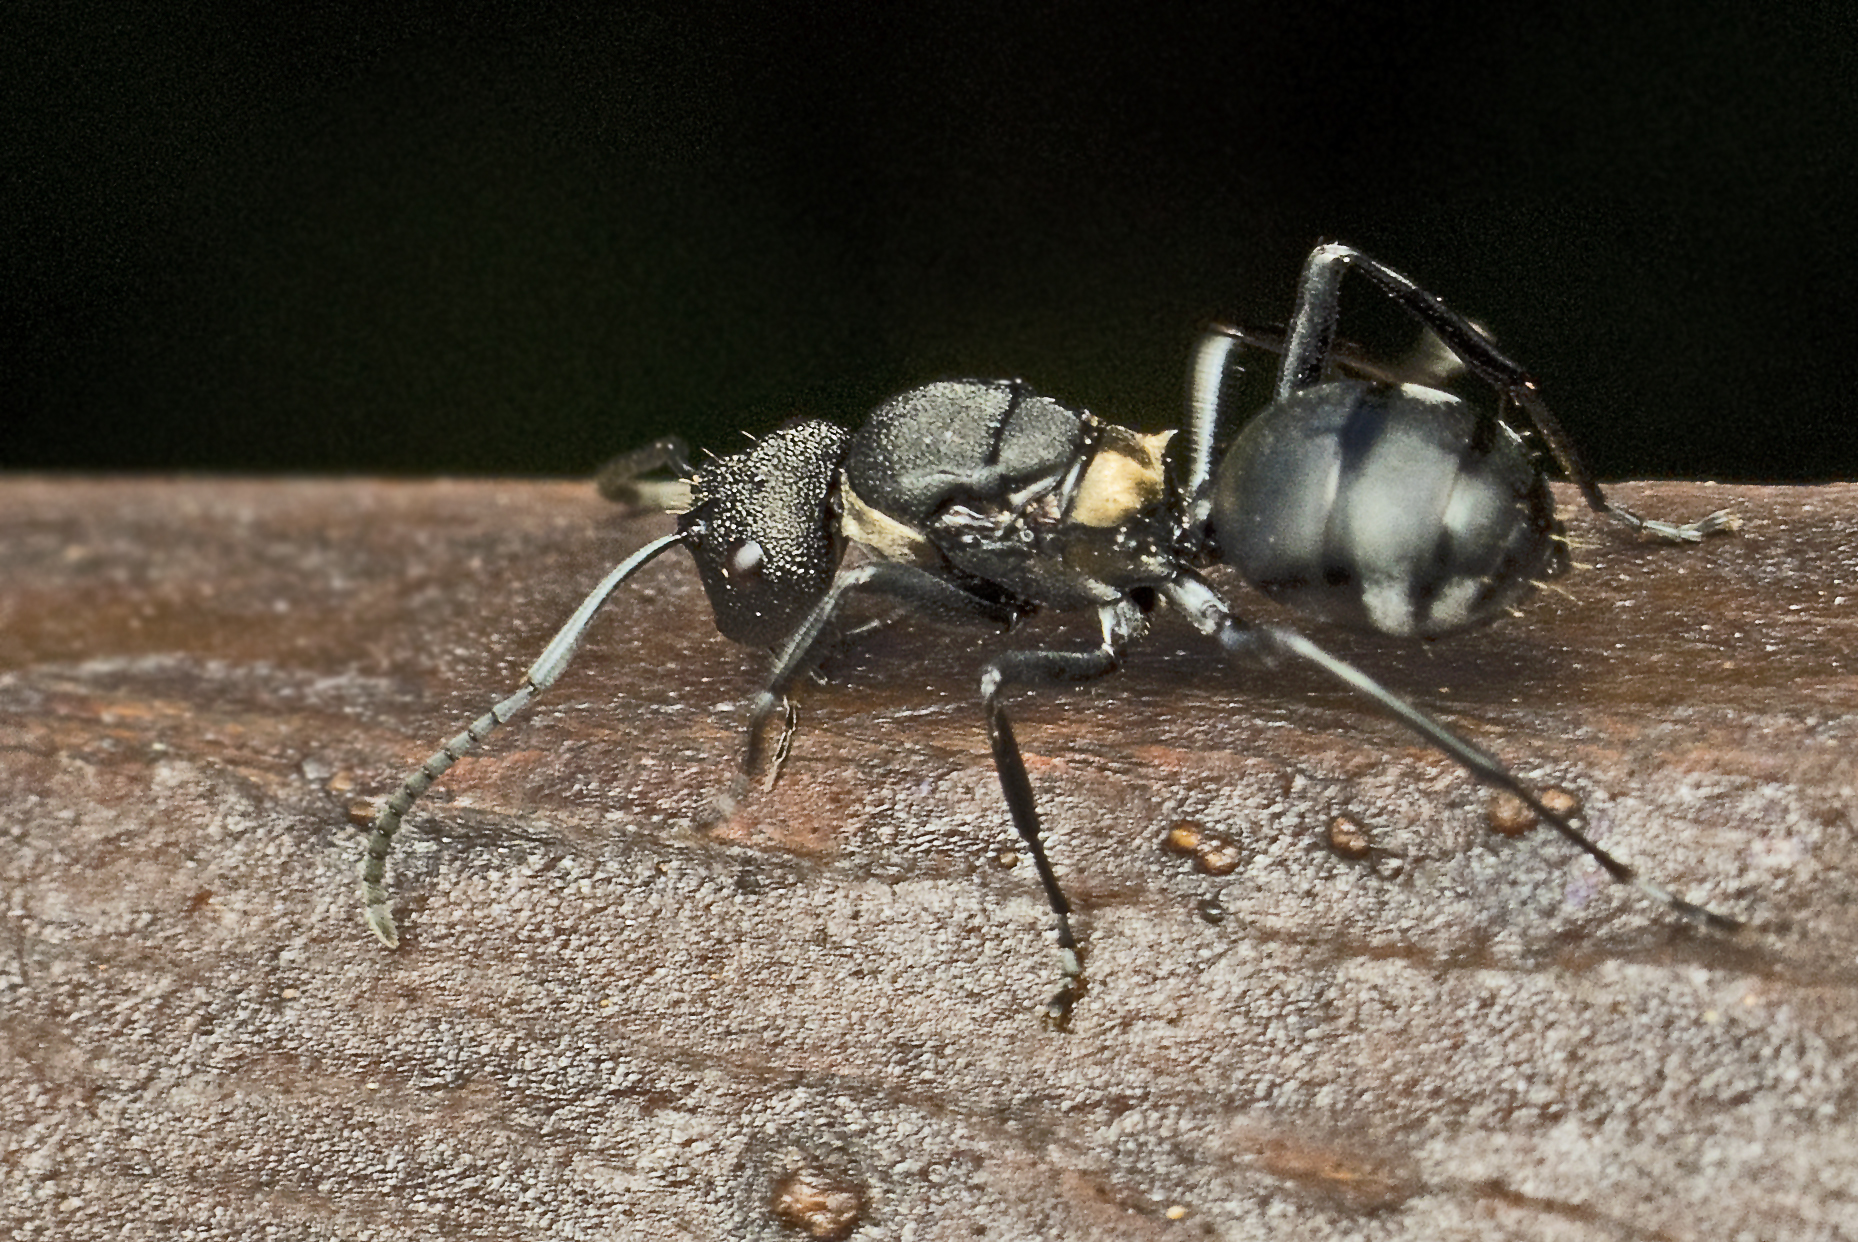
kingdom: Animalia
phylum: Arthropoda
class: Insecta
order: Hymenoptera
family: Formicidae
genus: Polyrhachis
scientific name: Polyrhachis machaon
